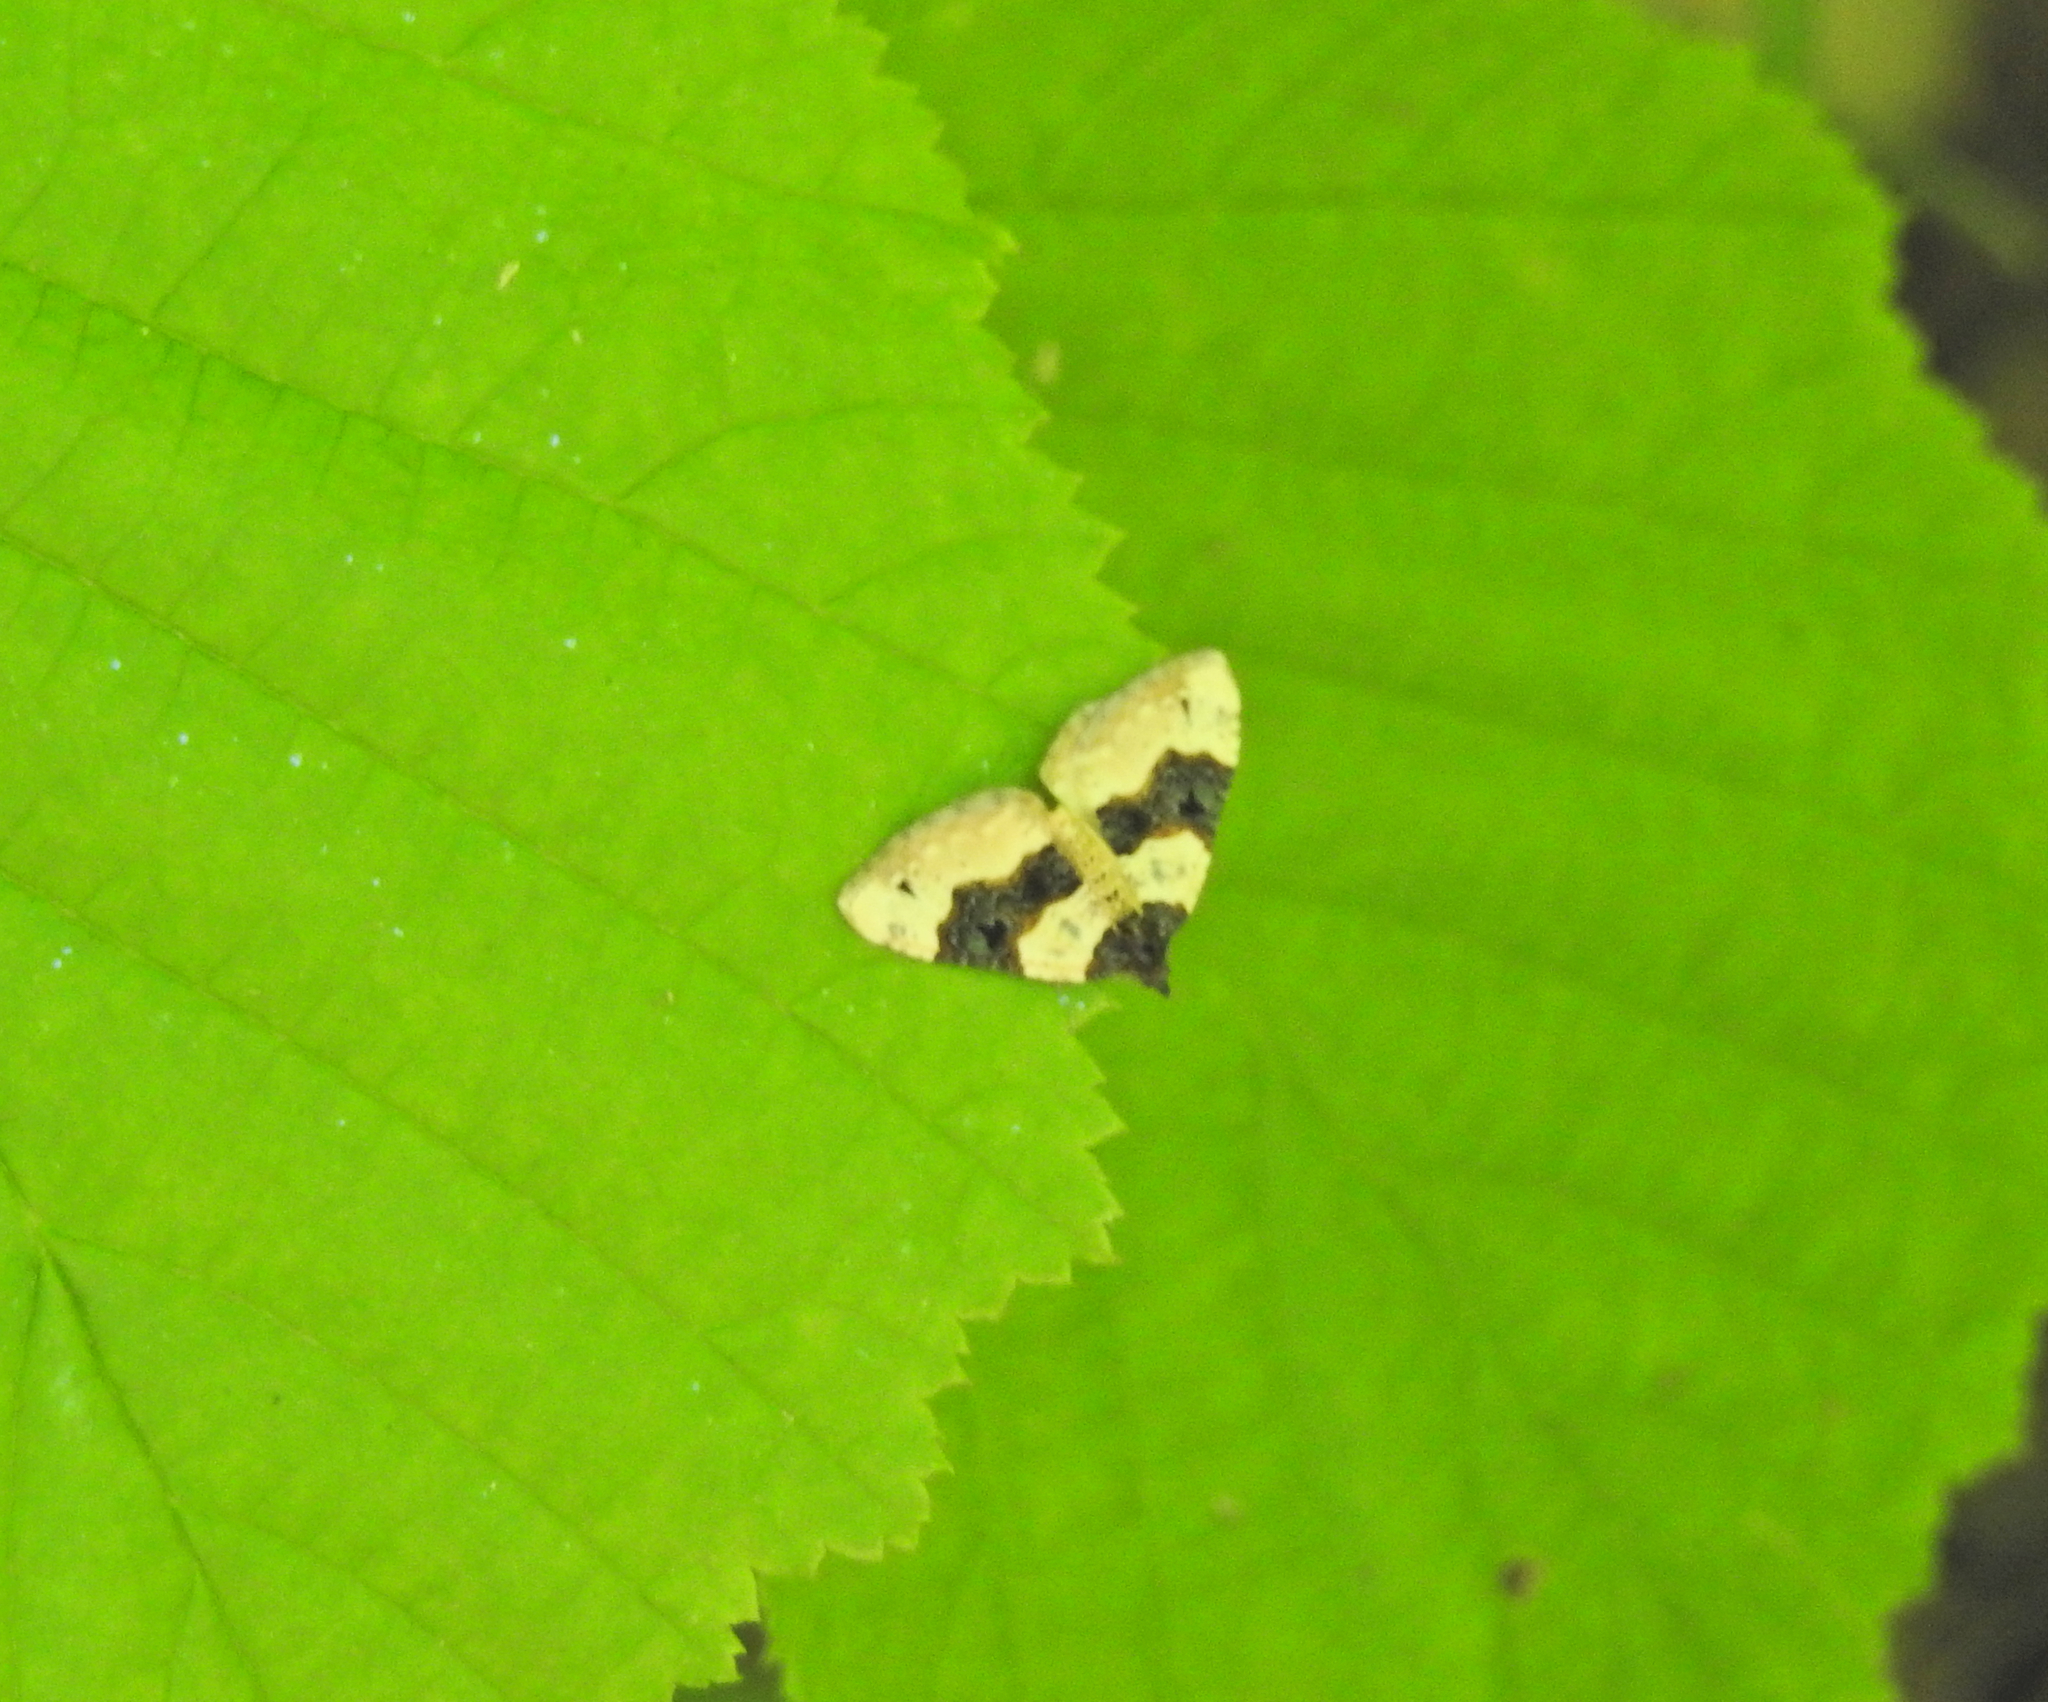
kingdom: Animalia
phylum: Arthropoda
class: Insecta
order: Lepidoptera
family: Geometridae
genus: Cosmorhoe
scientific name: Cosmorhoe ocellata
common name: Purple bar
